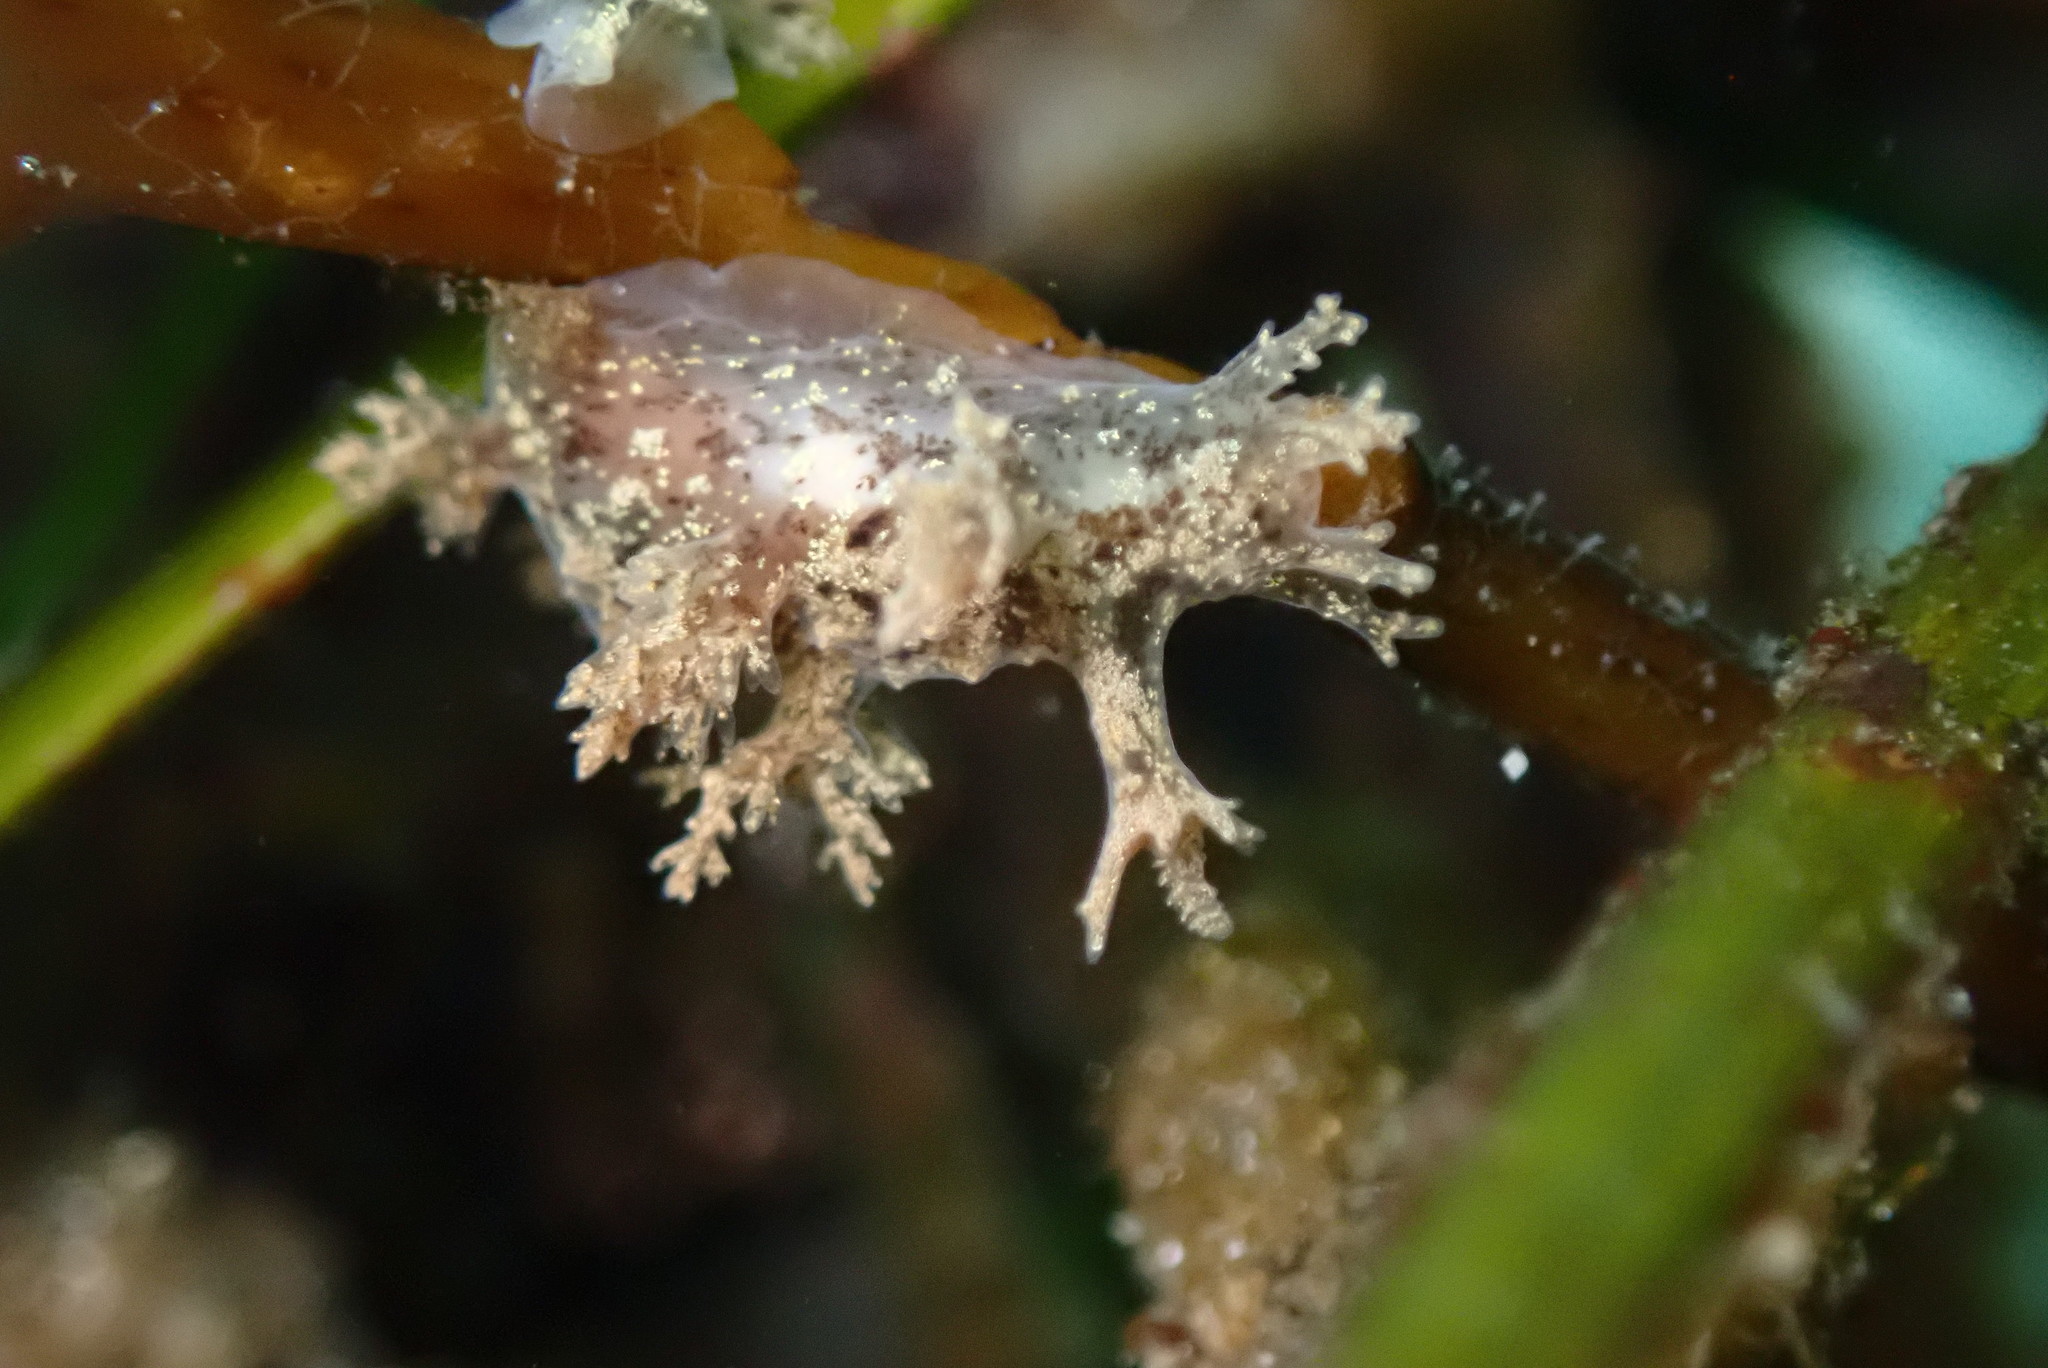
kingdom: Animalia
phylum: Mollusca
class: Gastropoda
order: Nudibranchia
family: Dendronotidae
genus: Dendronotus
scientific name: Dendronotus venustus
